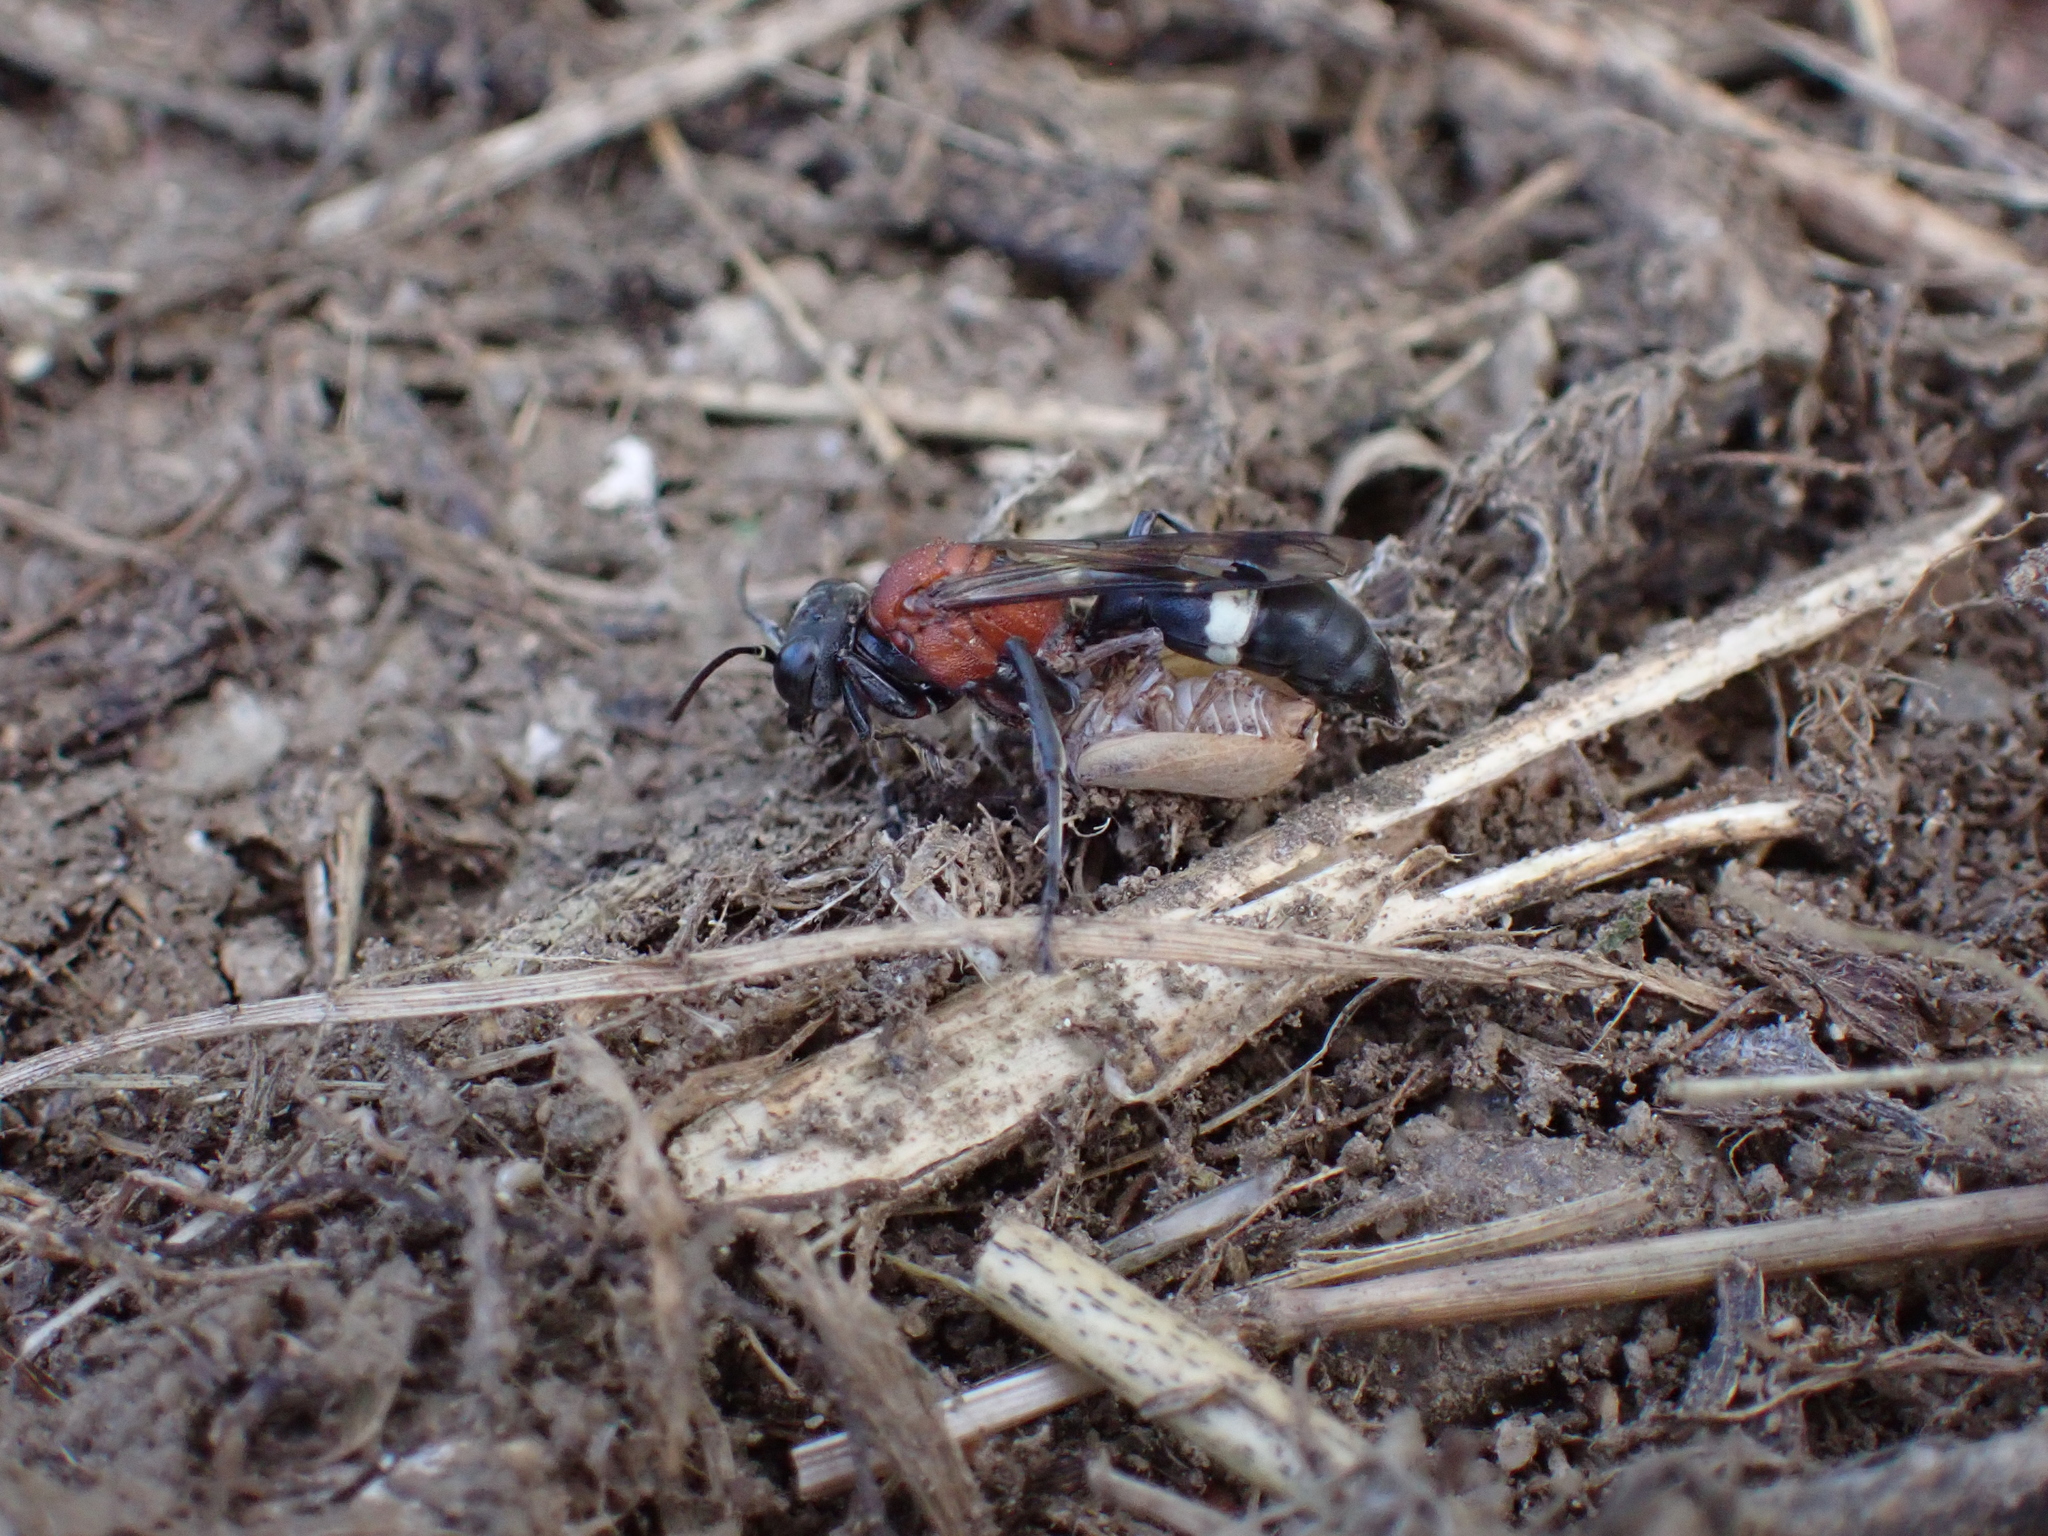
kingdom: Animalia
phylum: Arthropoda
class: Insecta
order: Hymenoptera
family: Crabronidae
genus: Oryttus
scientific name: Oryttus concinnus
